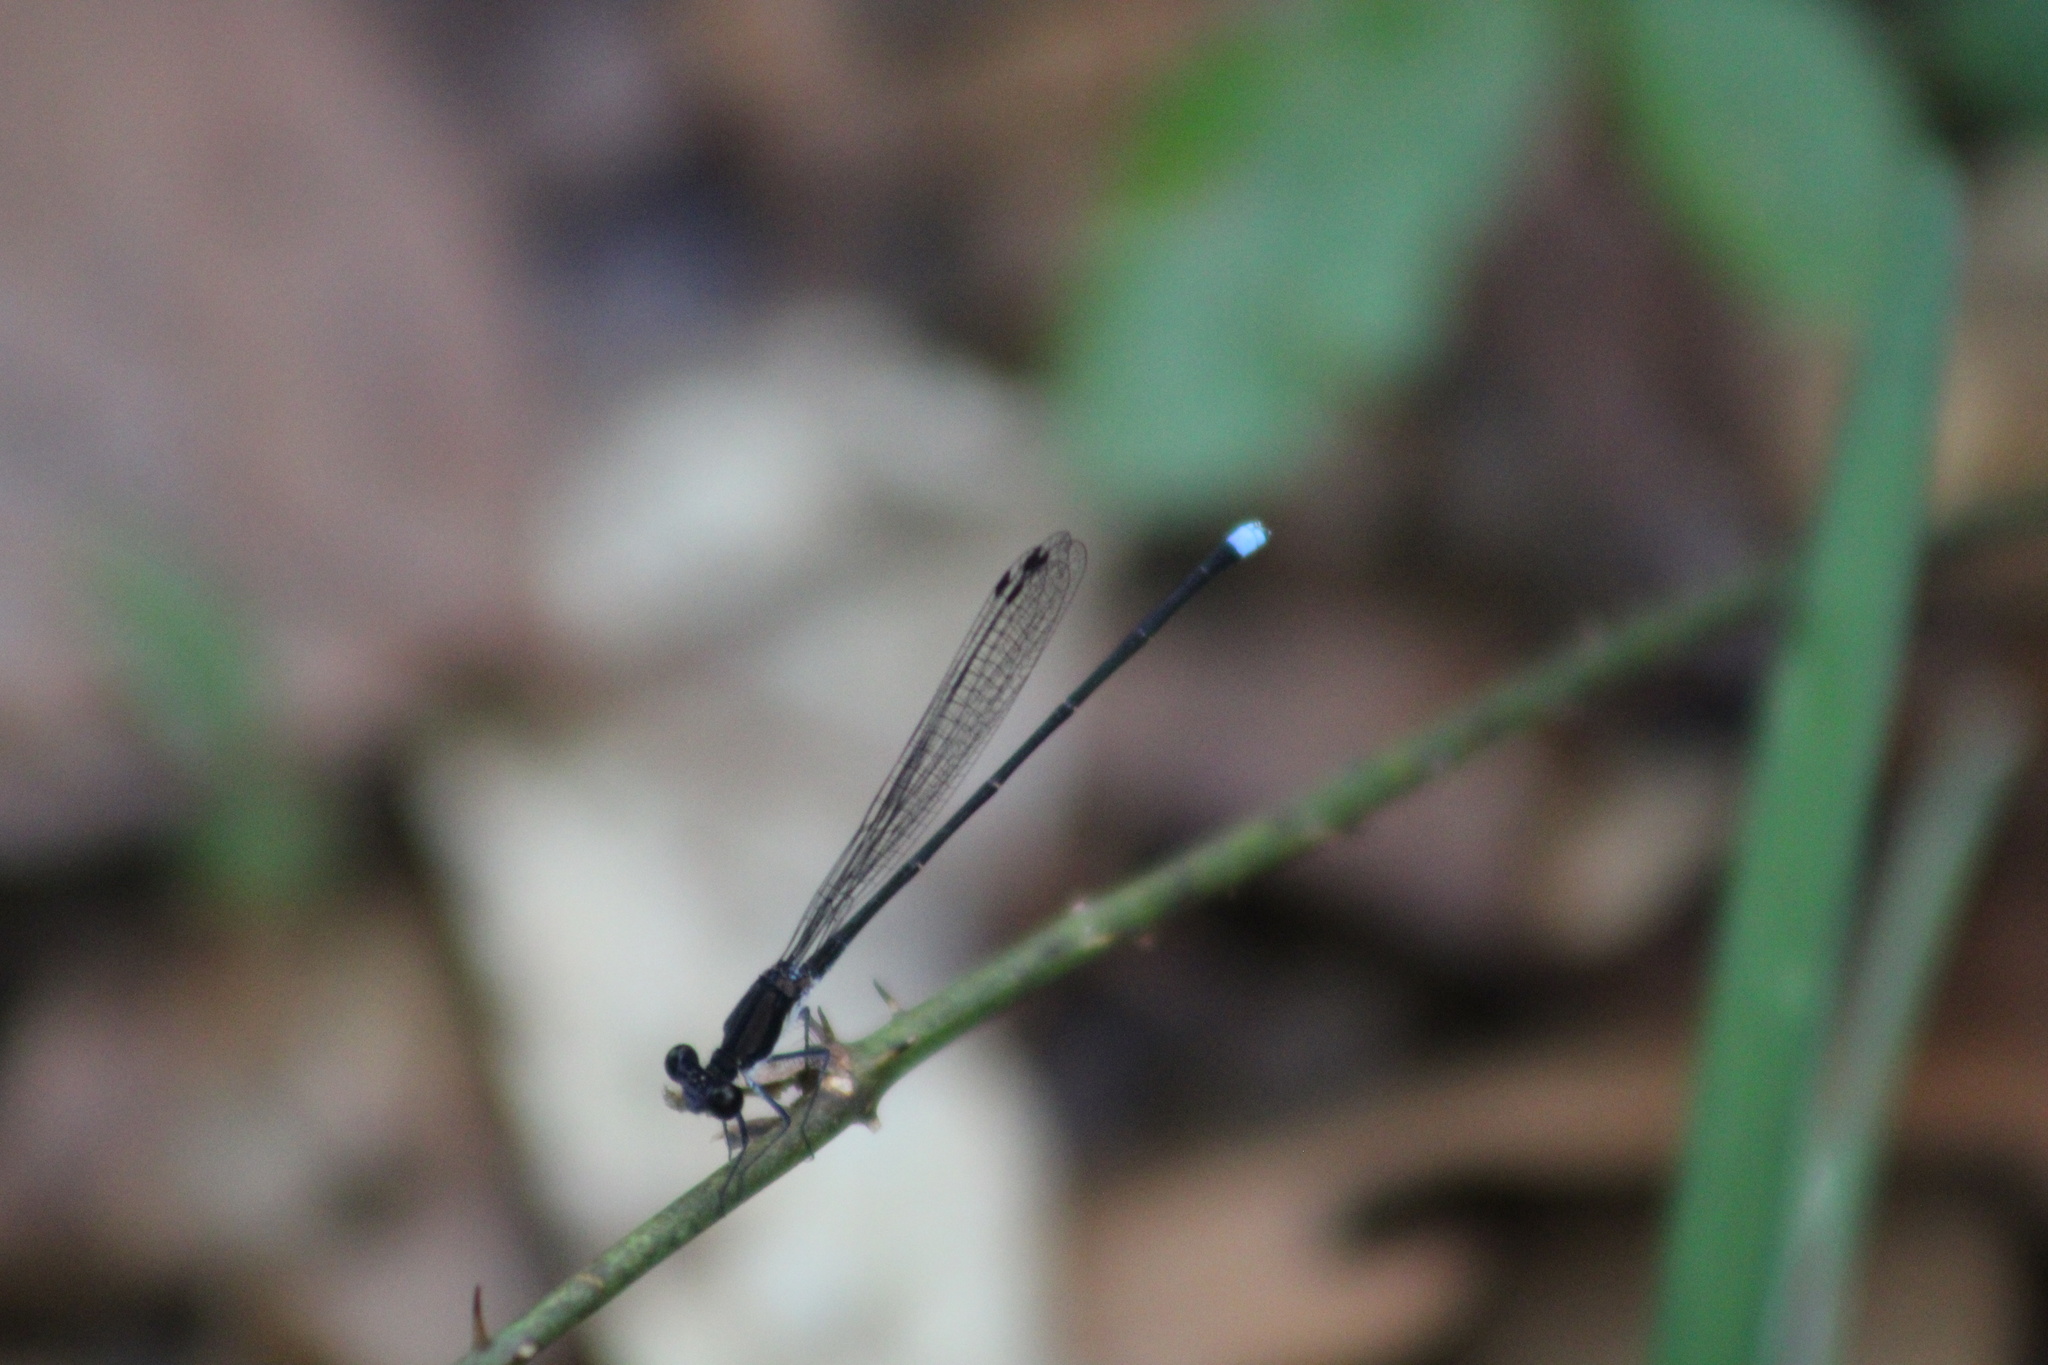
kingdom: Animalia
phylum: Arthropoda
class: Insecta
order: Odonata
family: Coenagrionidae
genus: Argia
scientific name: Argia tibialis
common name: Blue-tipped dancer
